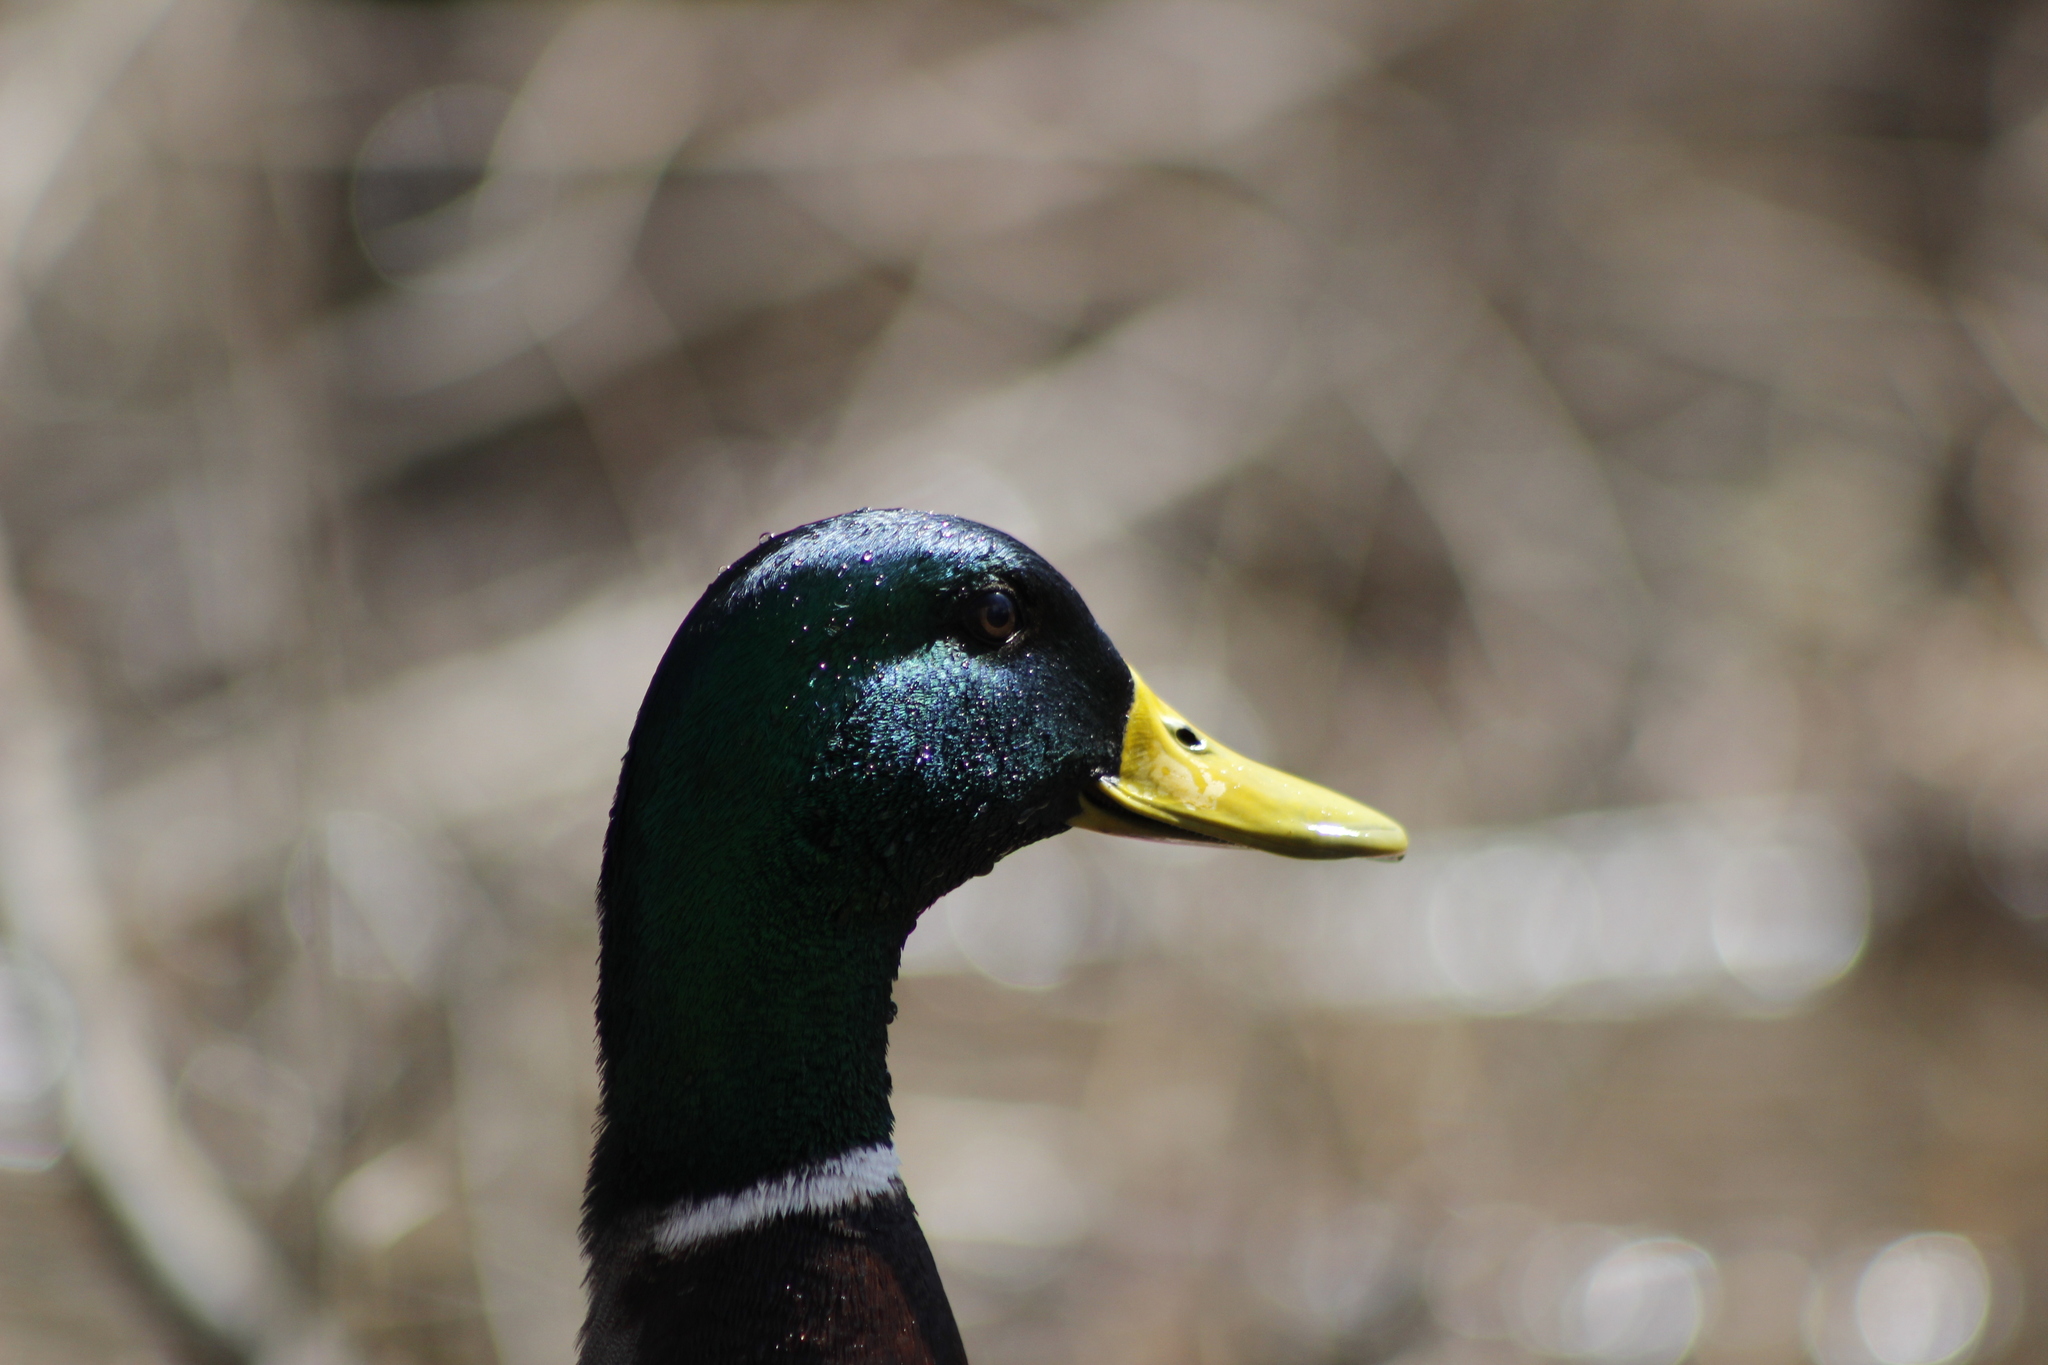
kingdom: Animalia
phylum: Chordata
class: Aves
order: Anseriformes
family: Anatidae
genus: Anas
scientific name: Anas platyrhynchos
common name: Mallard
